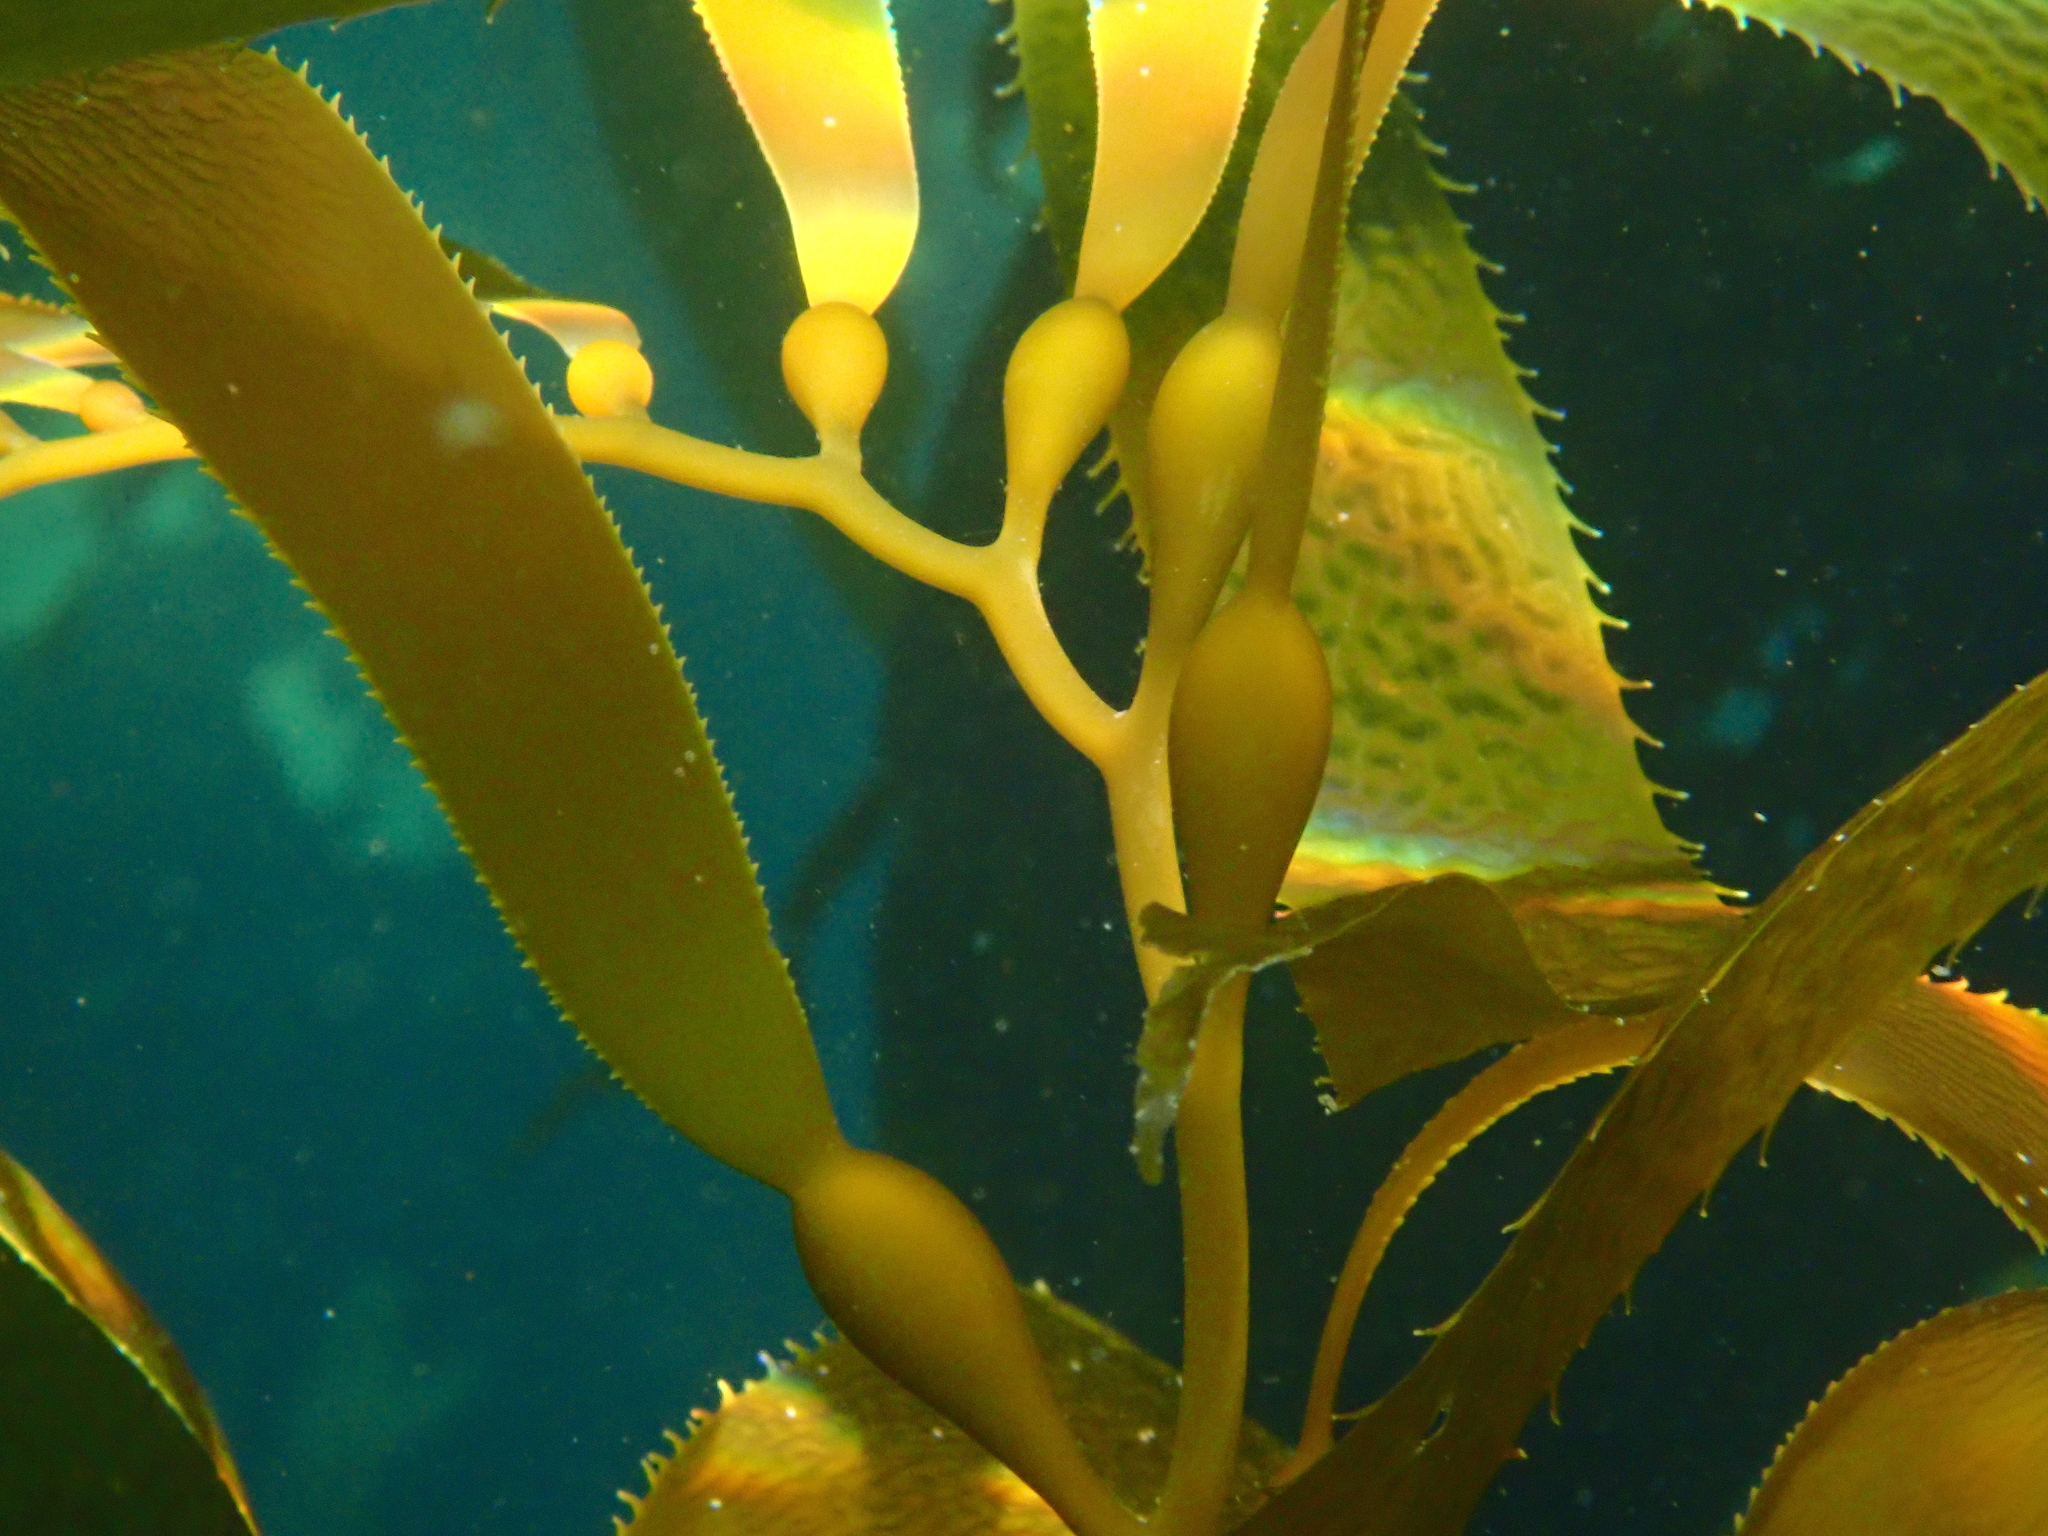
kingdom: Chromista
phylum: Ochrophyta
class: Phaeophyceae
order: Laminariales
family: Laminariaceae
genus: Macrocystis
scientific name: Macrocystis pyrifera
